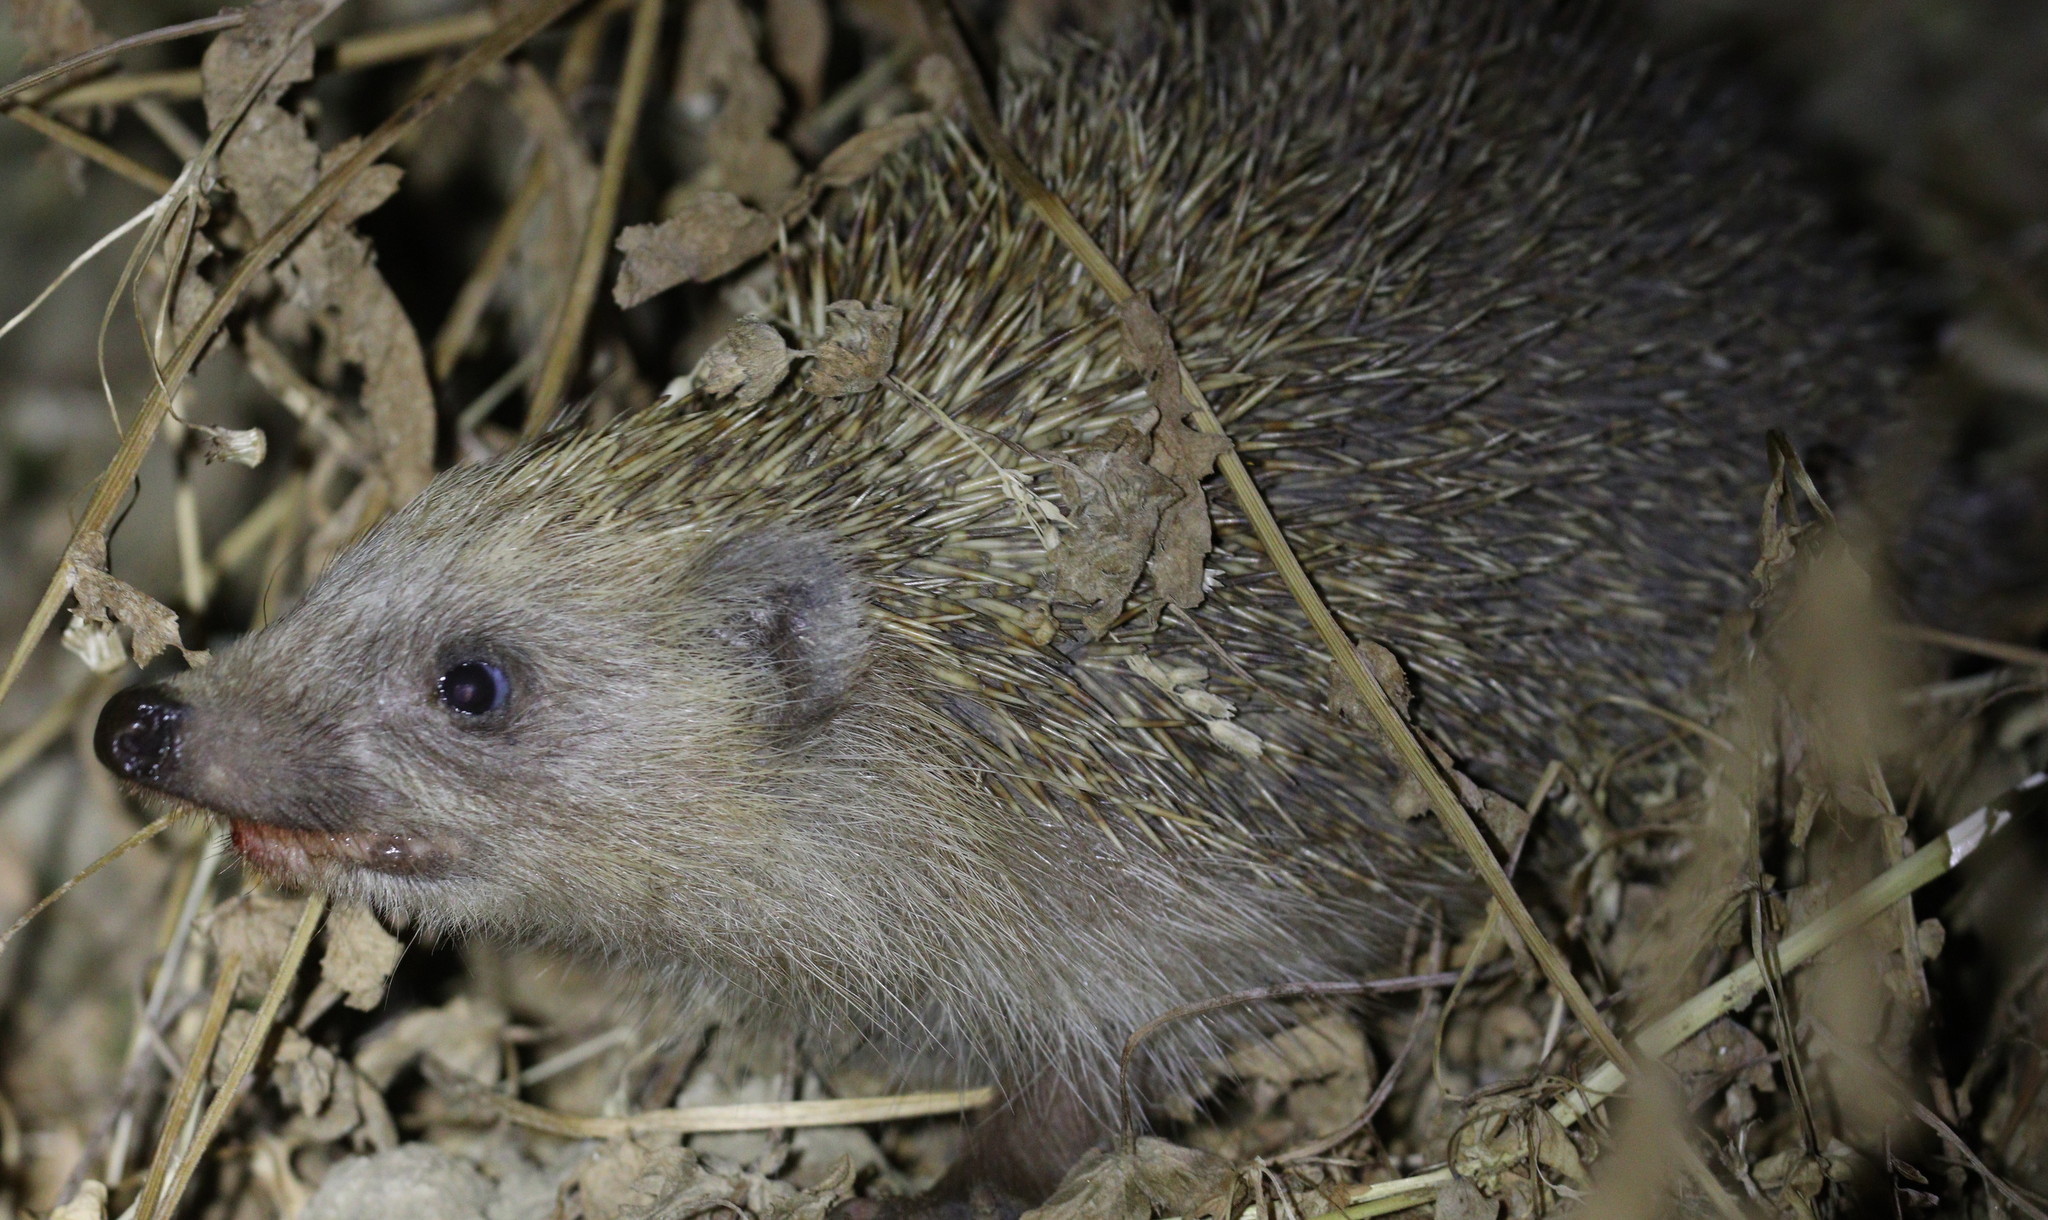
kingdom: Animalia
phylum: Chordata
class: Mammalia
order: Erinaceomorpha
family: Erinaceidae
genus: Erinaceus
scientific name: Erinaceus concolor
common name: Southern white-breasted hedgehog
